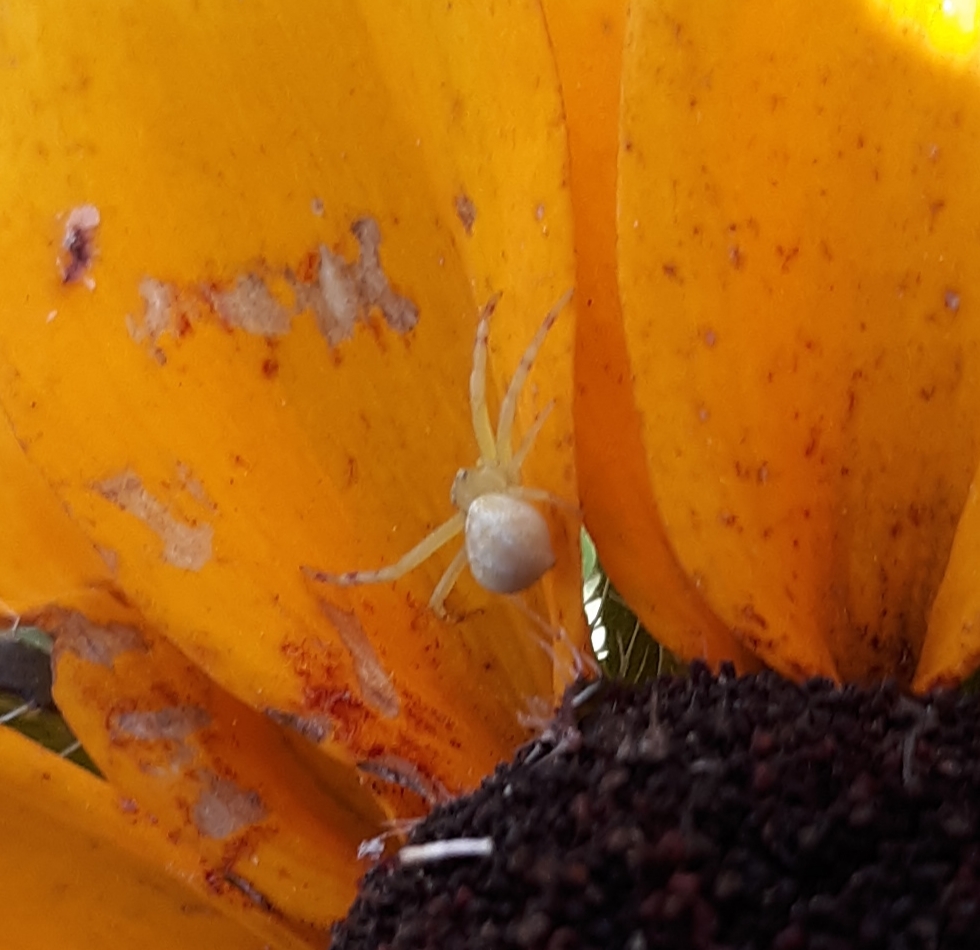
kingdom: Animalia
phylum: Arthropoda
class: Arachnida
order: Araneae
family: Thomisidae
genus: Misumena
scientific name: Misumena vatia
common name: Goldenrod crab spider
